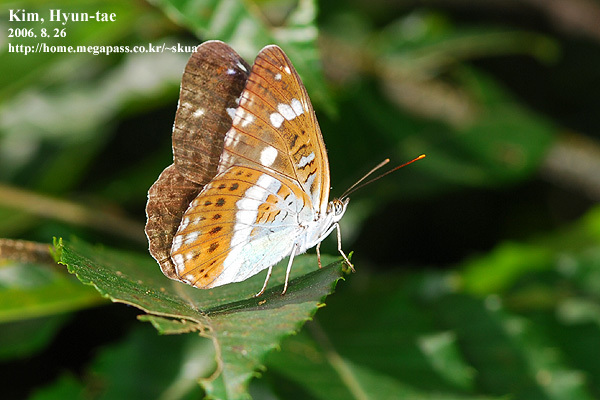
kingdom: Animalia
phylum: Arthropoda
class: Insecta
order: Lepidoptera
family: Nymphalidae
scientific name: Nymphalidae
